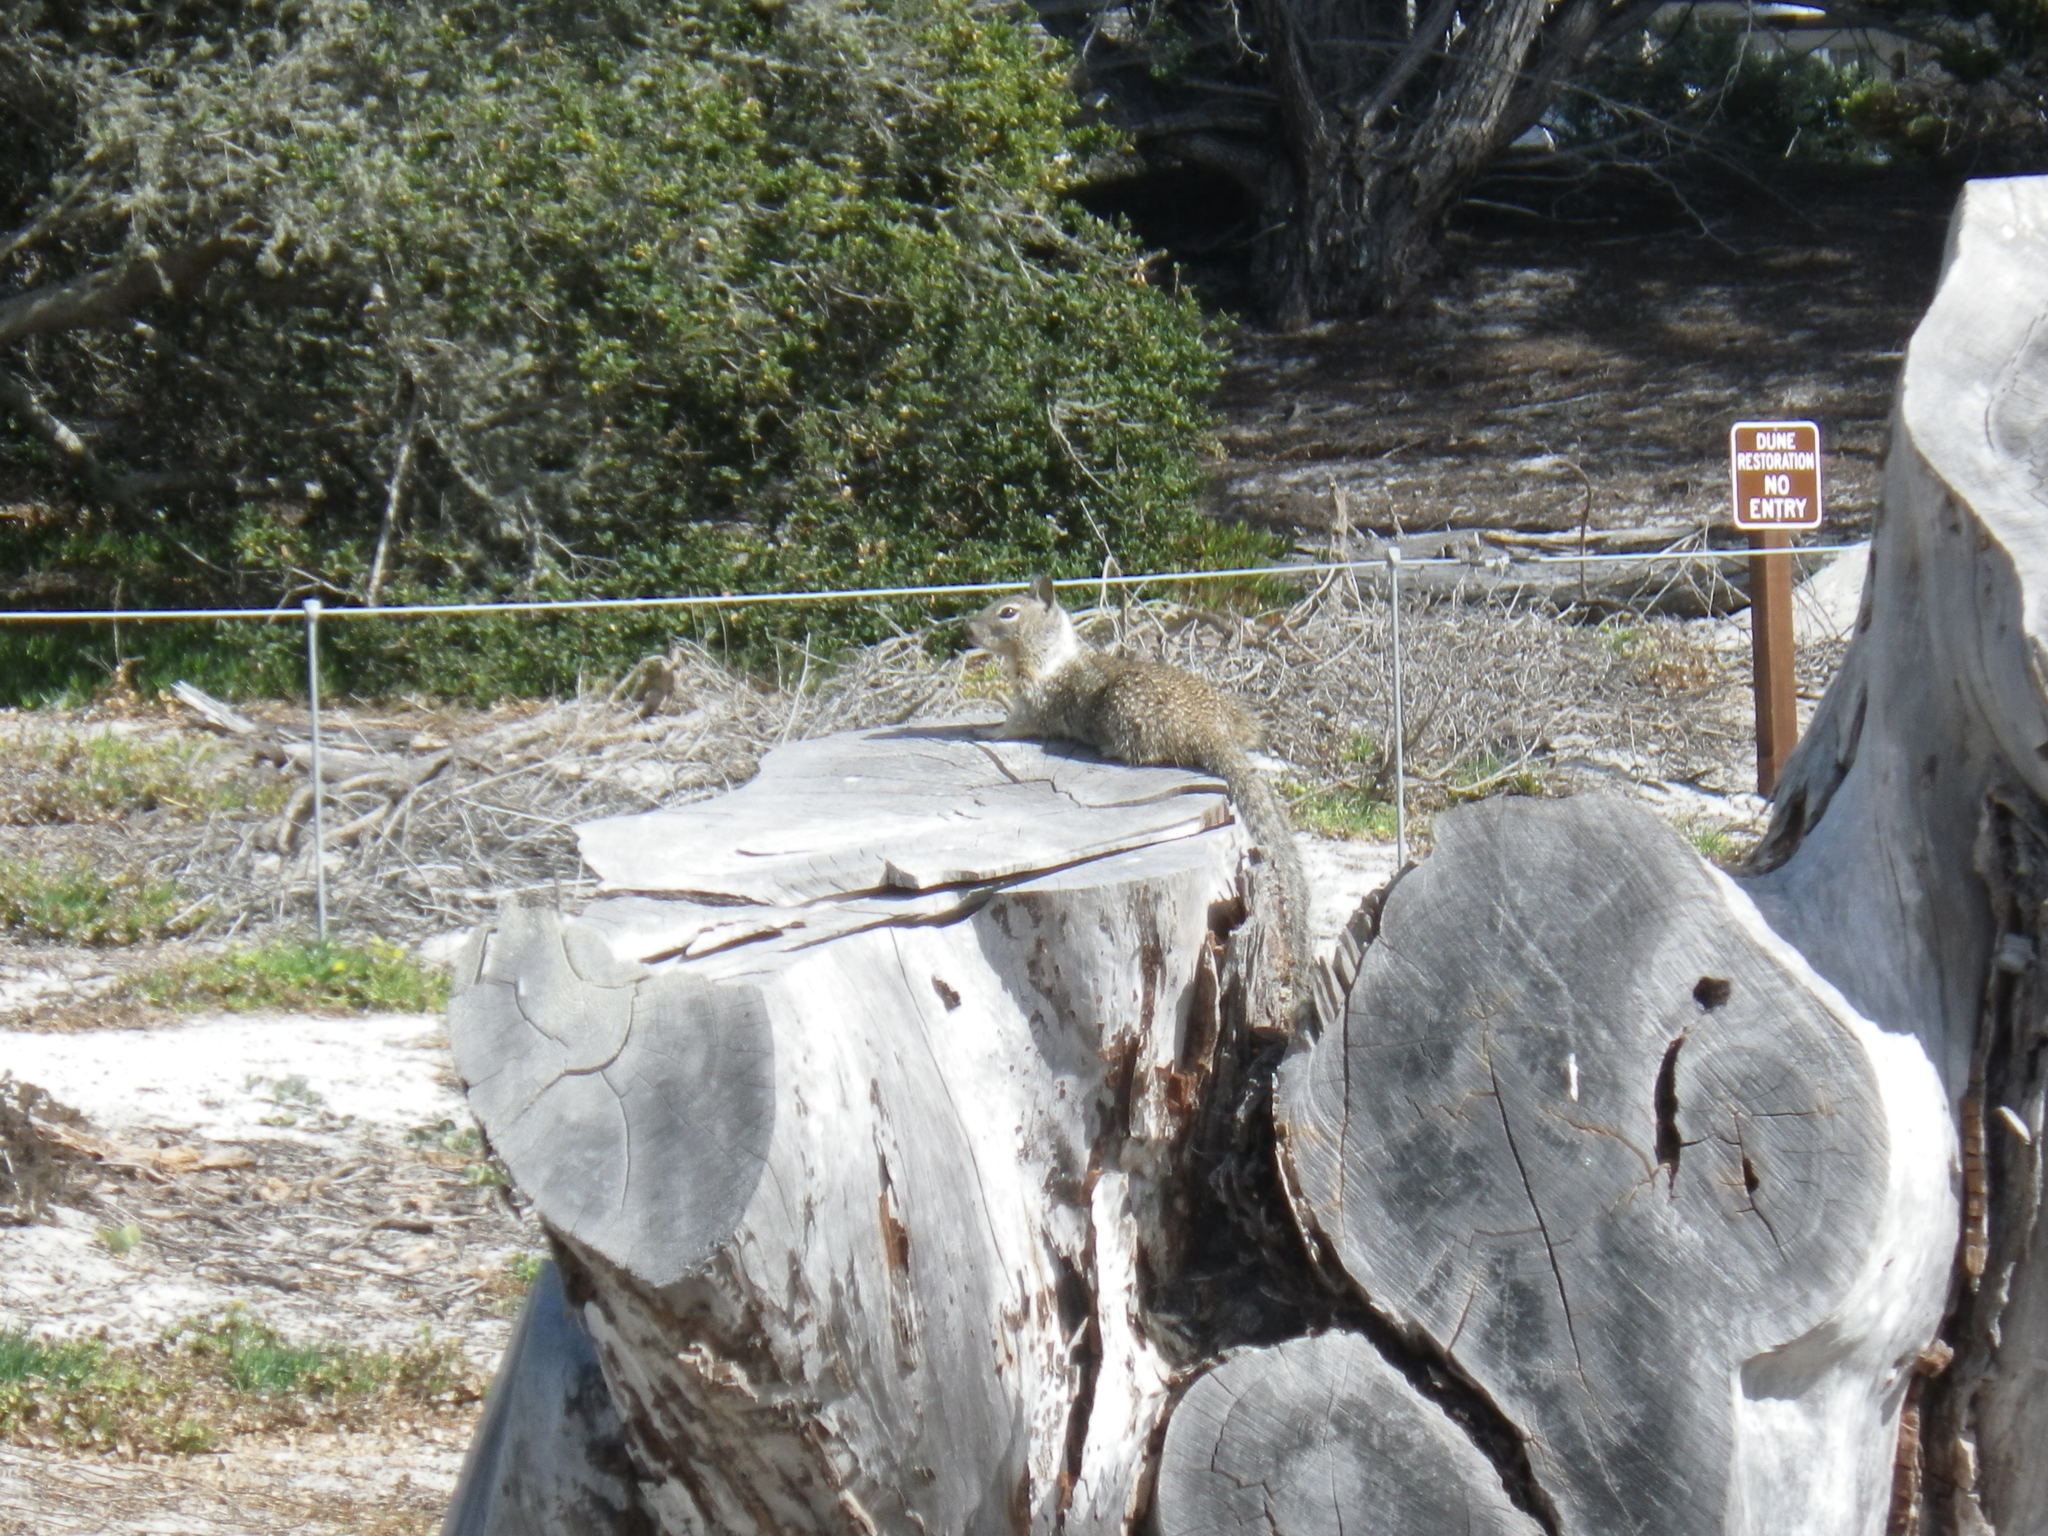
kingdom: Animalia
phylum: Chordata
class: Mammalia
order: Rodentia
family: Sciuridae
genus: Otospermophilus
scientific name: Otospermophilus beecheyi
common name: California ground squirrel
